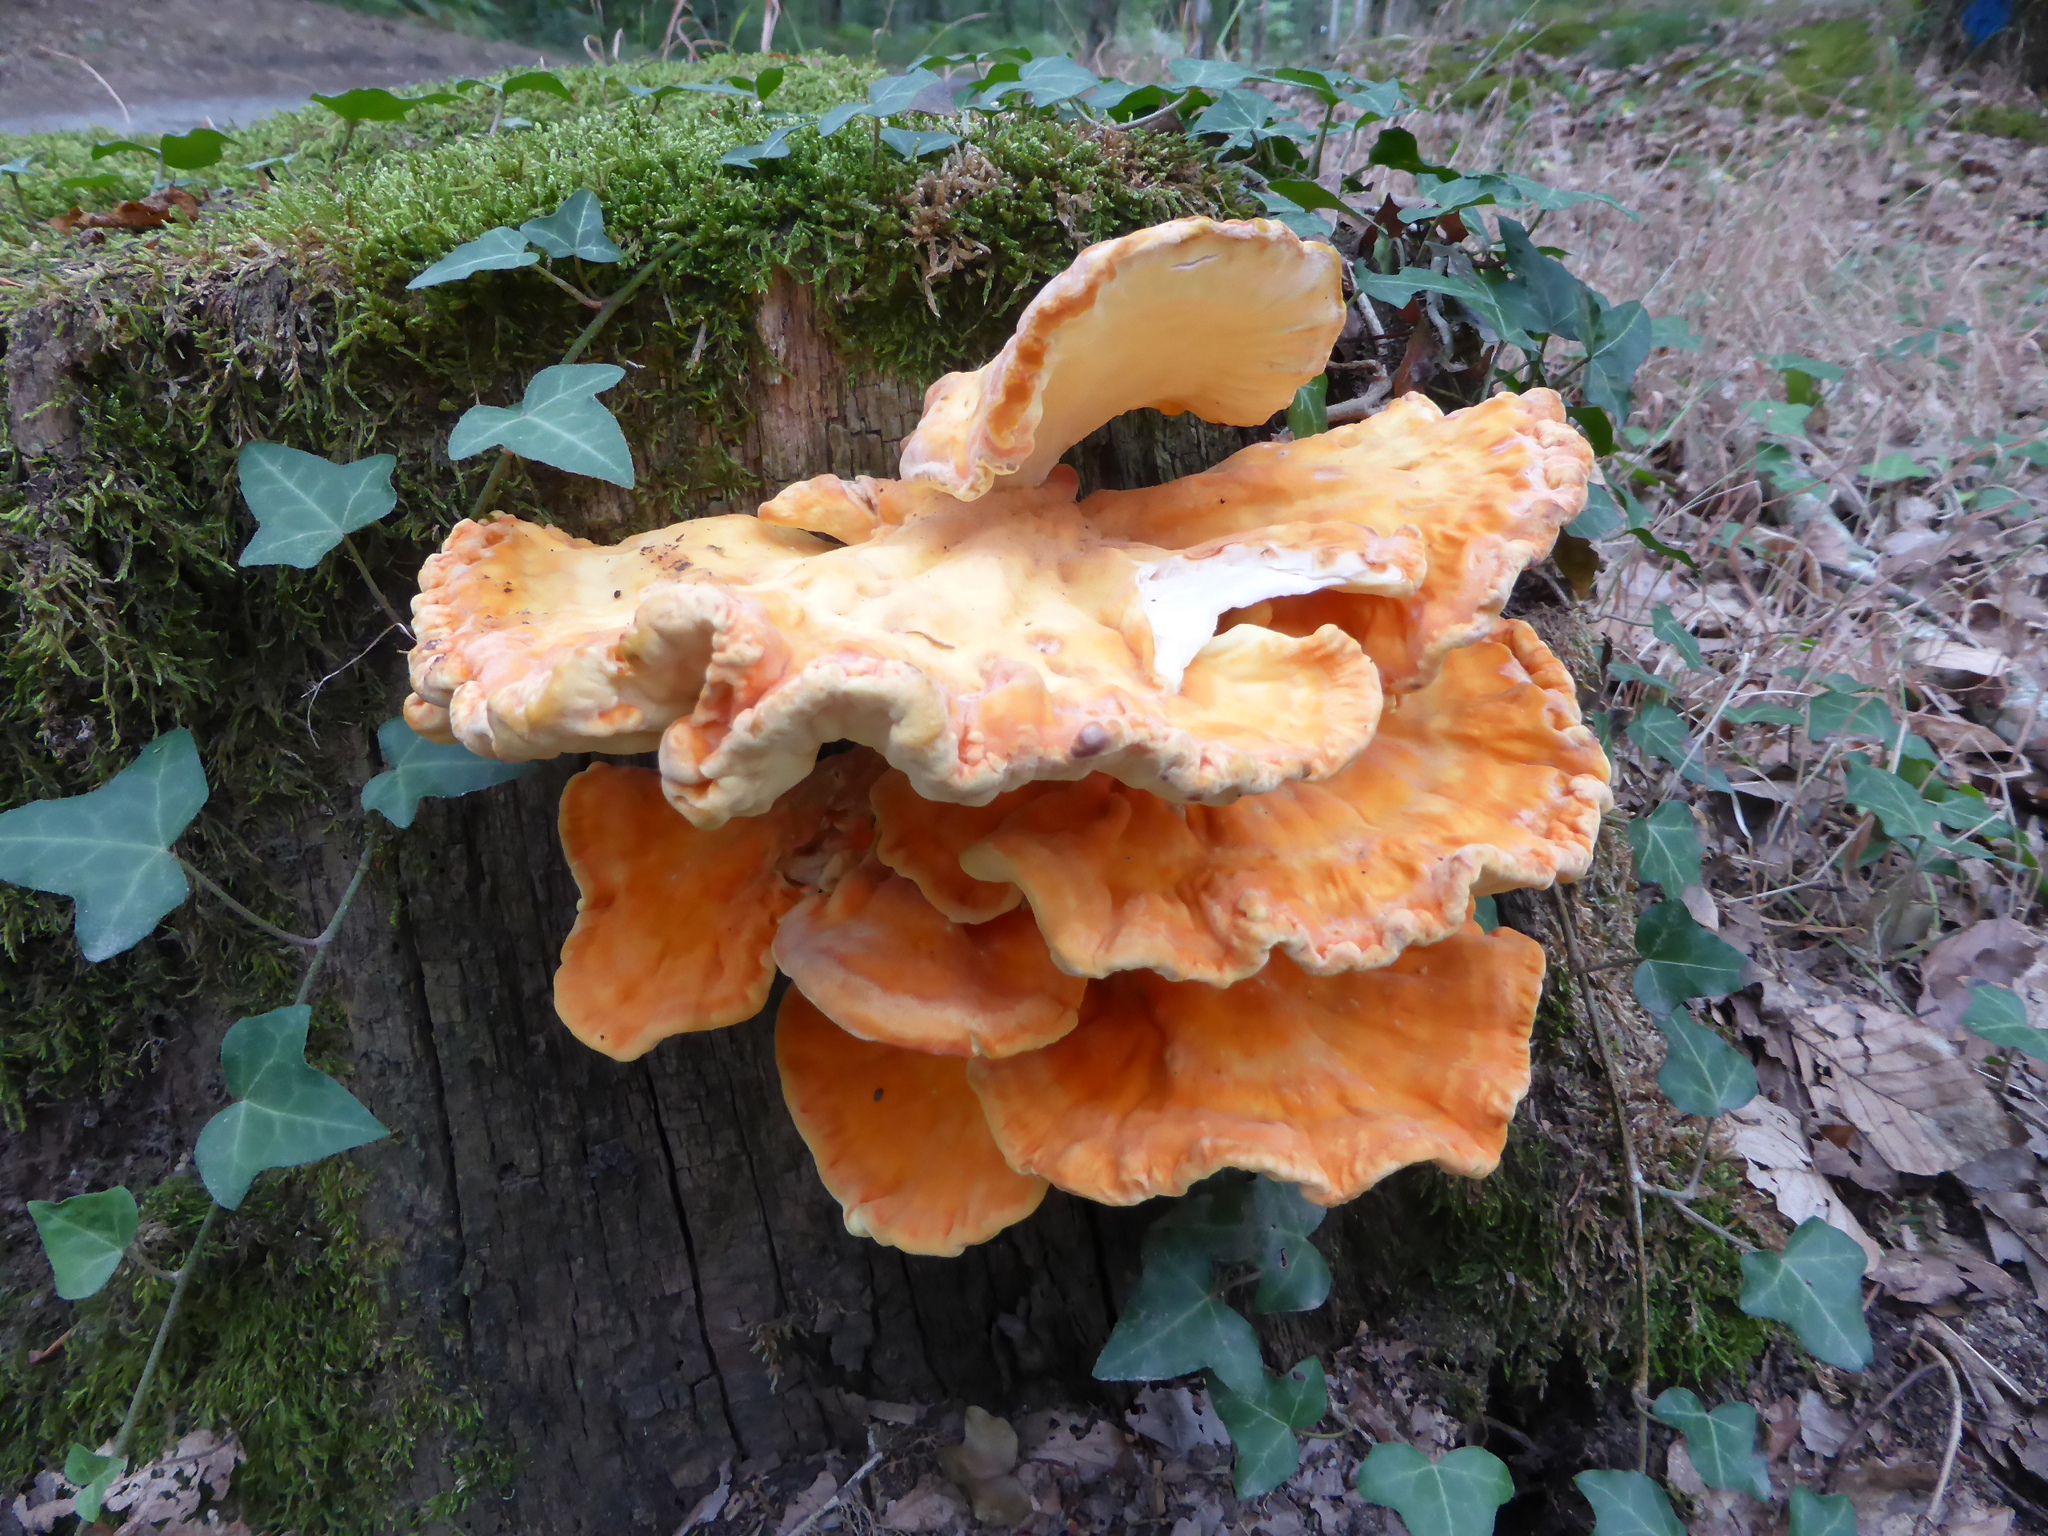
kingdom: Fungi
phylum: Basidiomycota
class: Agaricomycetes
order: Polyporales
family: Laetiporaceae
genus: Laetiporus
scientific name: Laetiporus sulphureus
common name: Chicken of the woods
